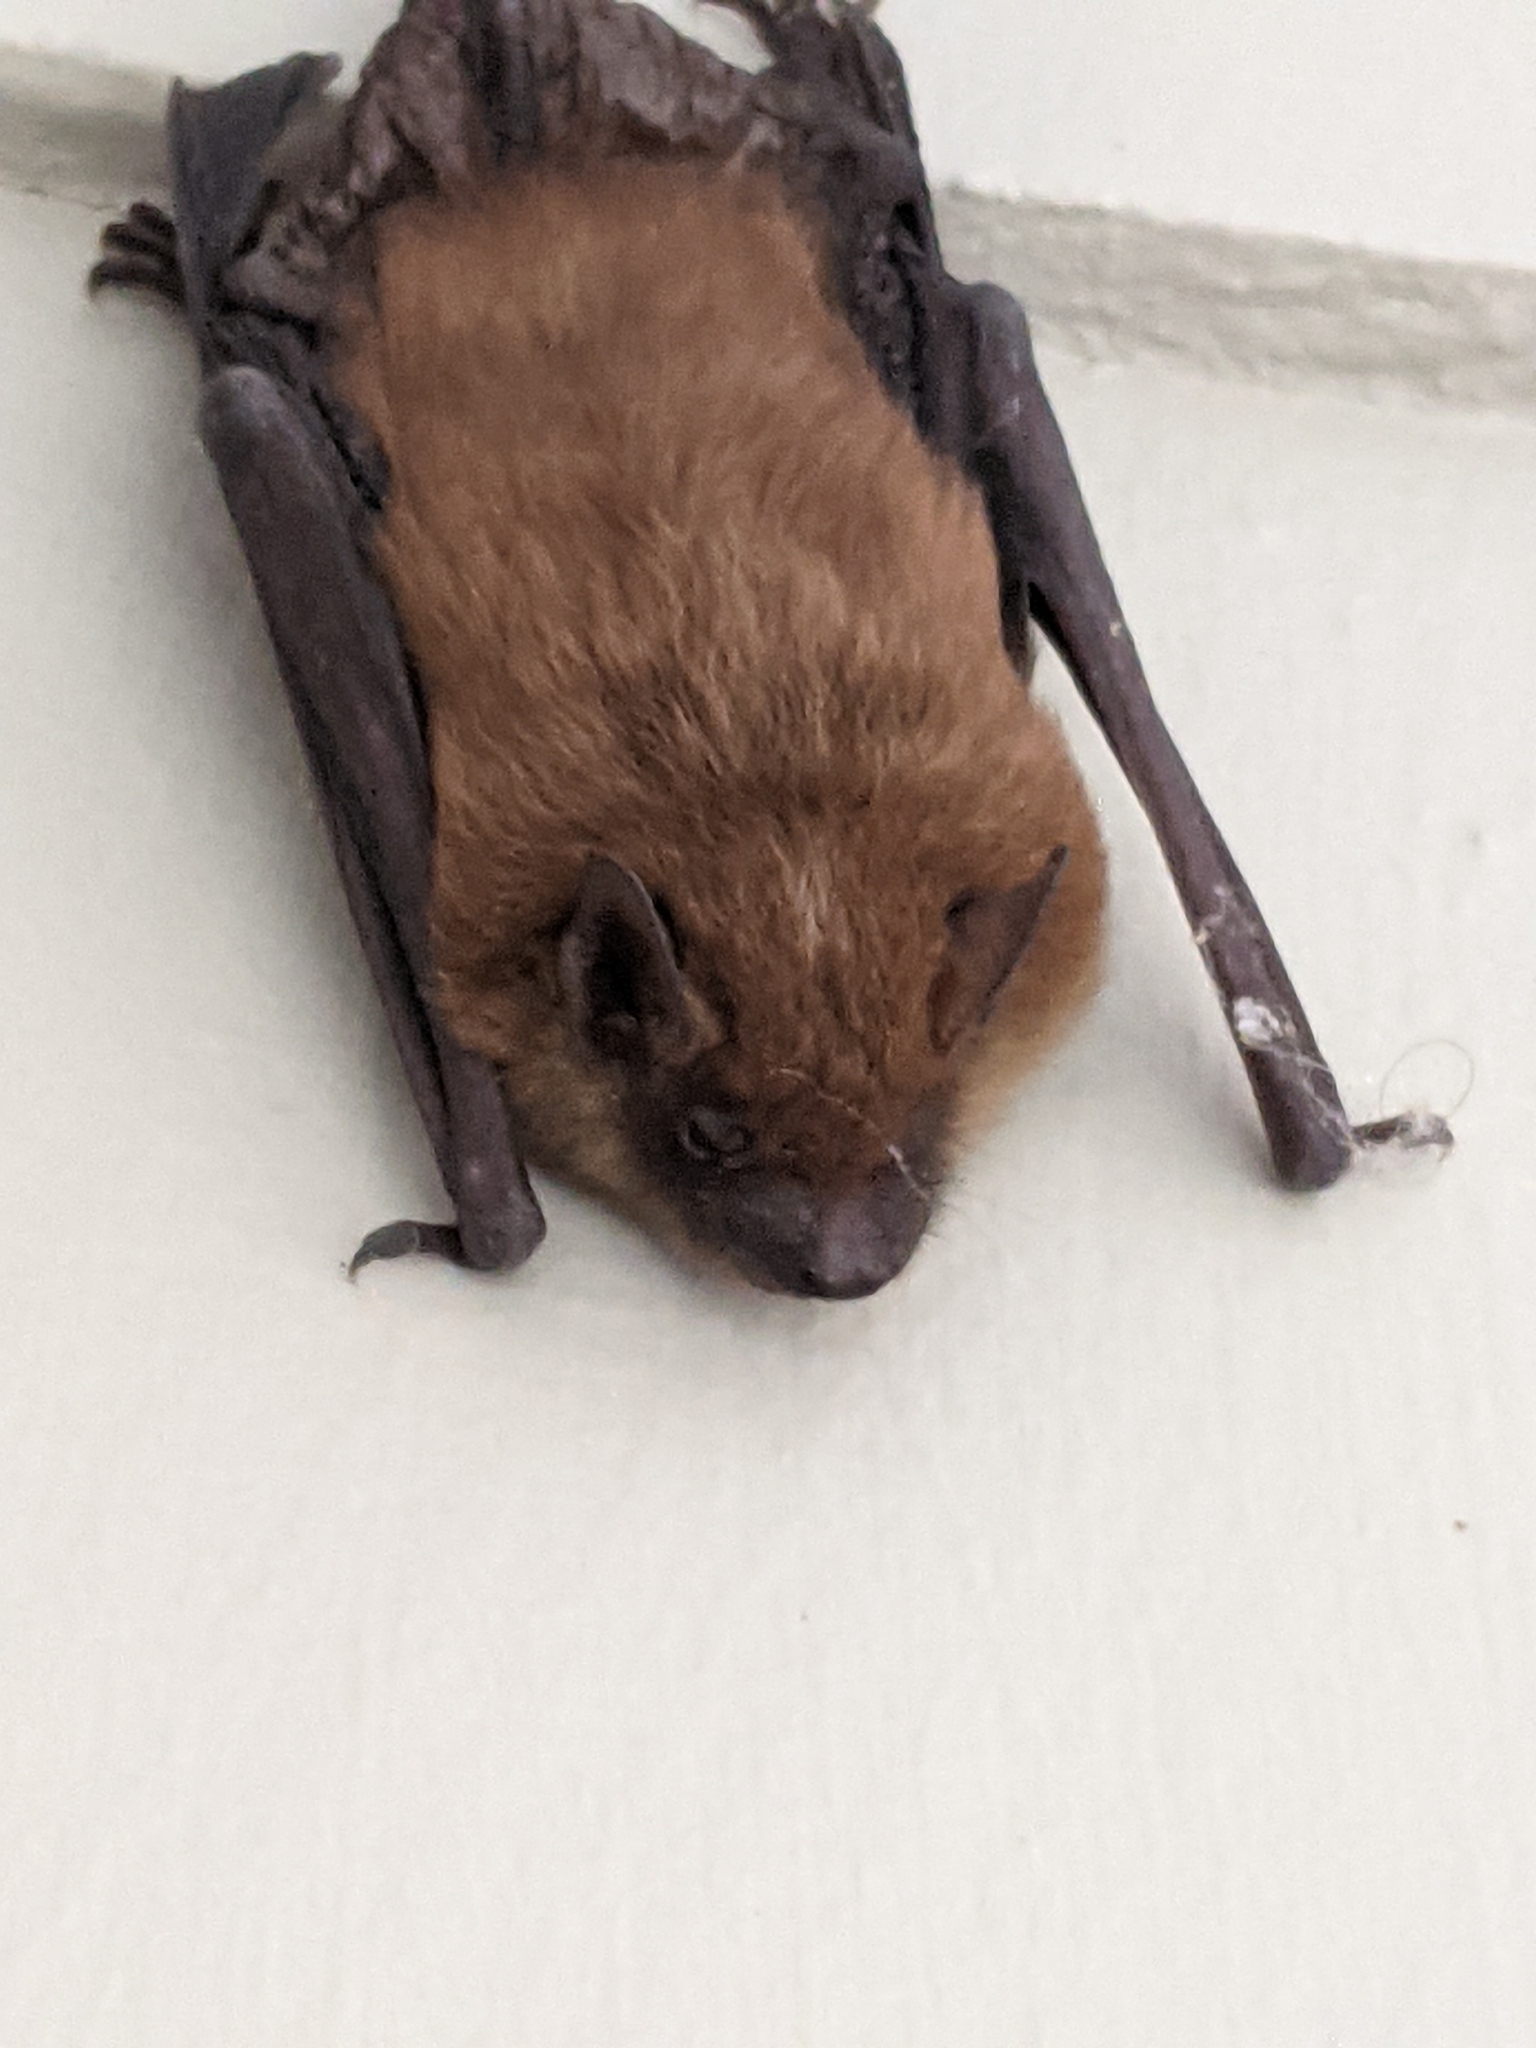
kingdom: Animalia
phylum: Chordata
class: Mammalia
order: Chiroptera
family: Vespertilionidae
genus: Eptesicus
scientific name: Eptesicus fuscus
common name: Big brown bat
